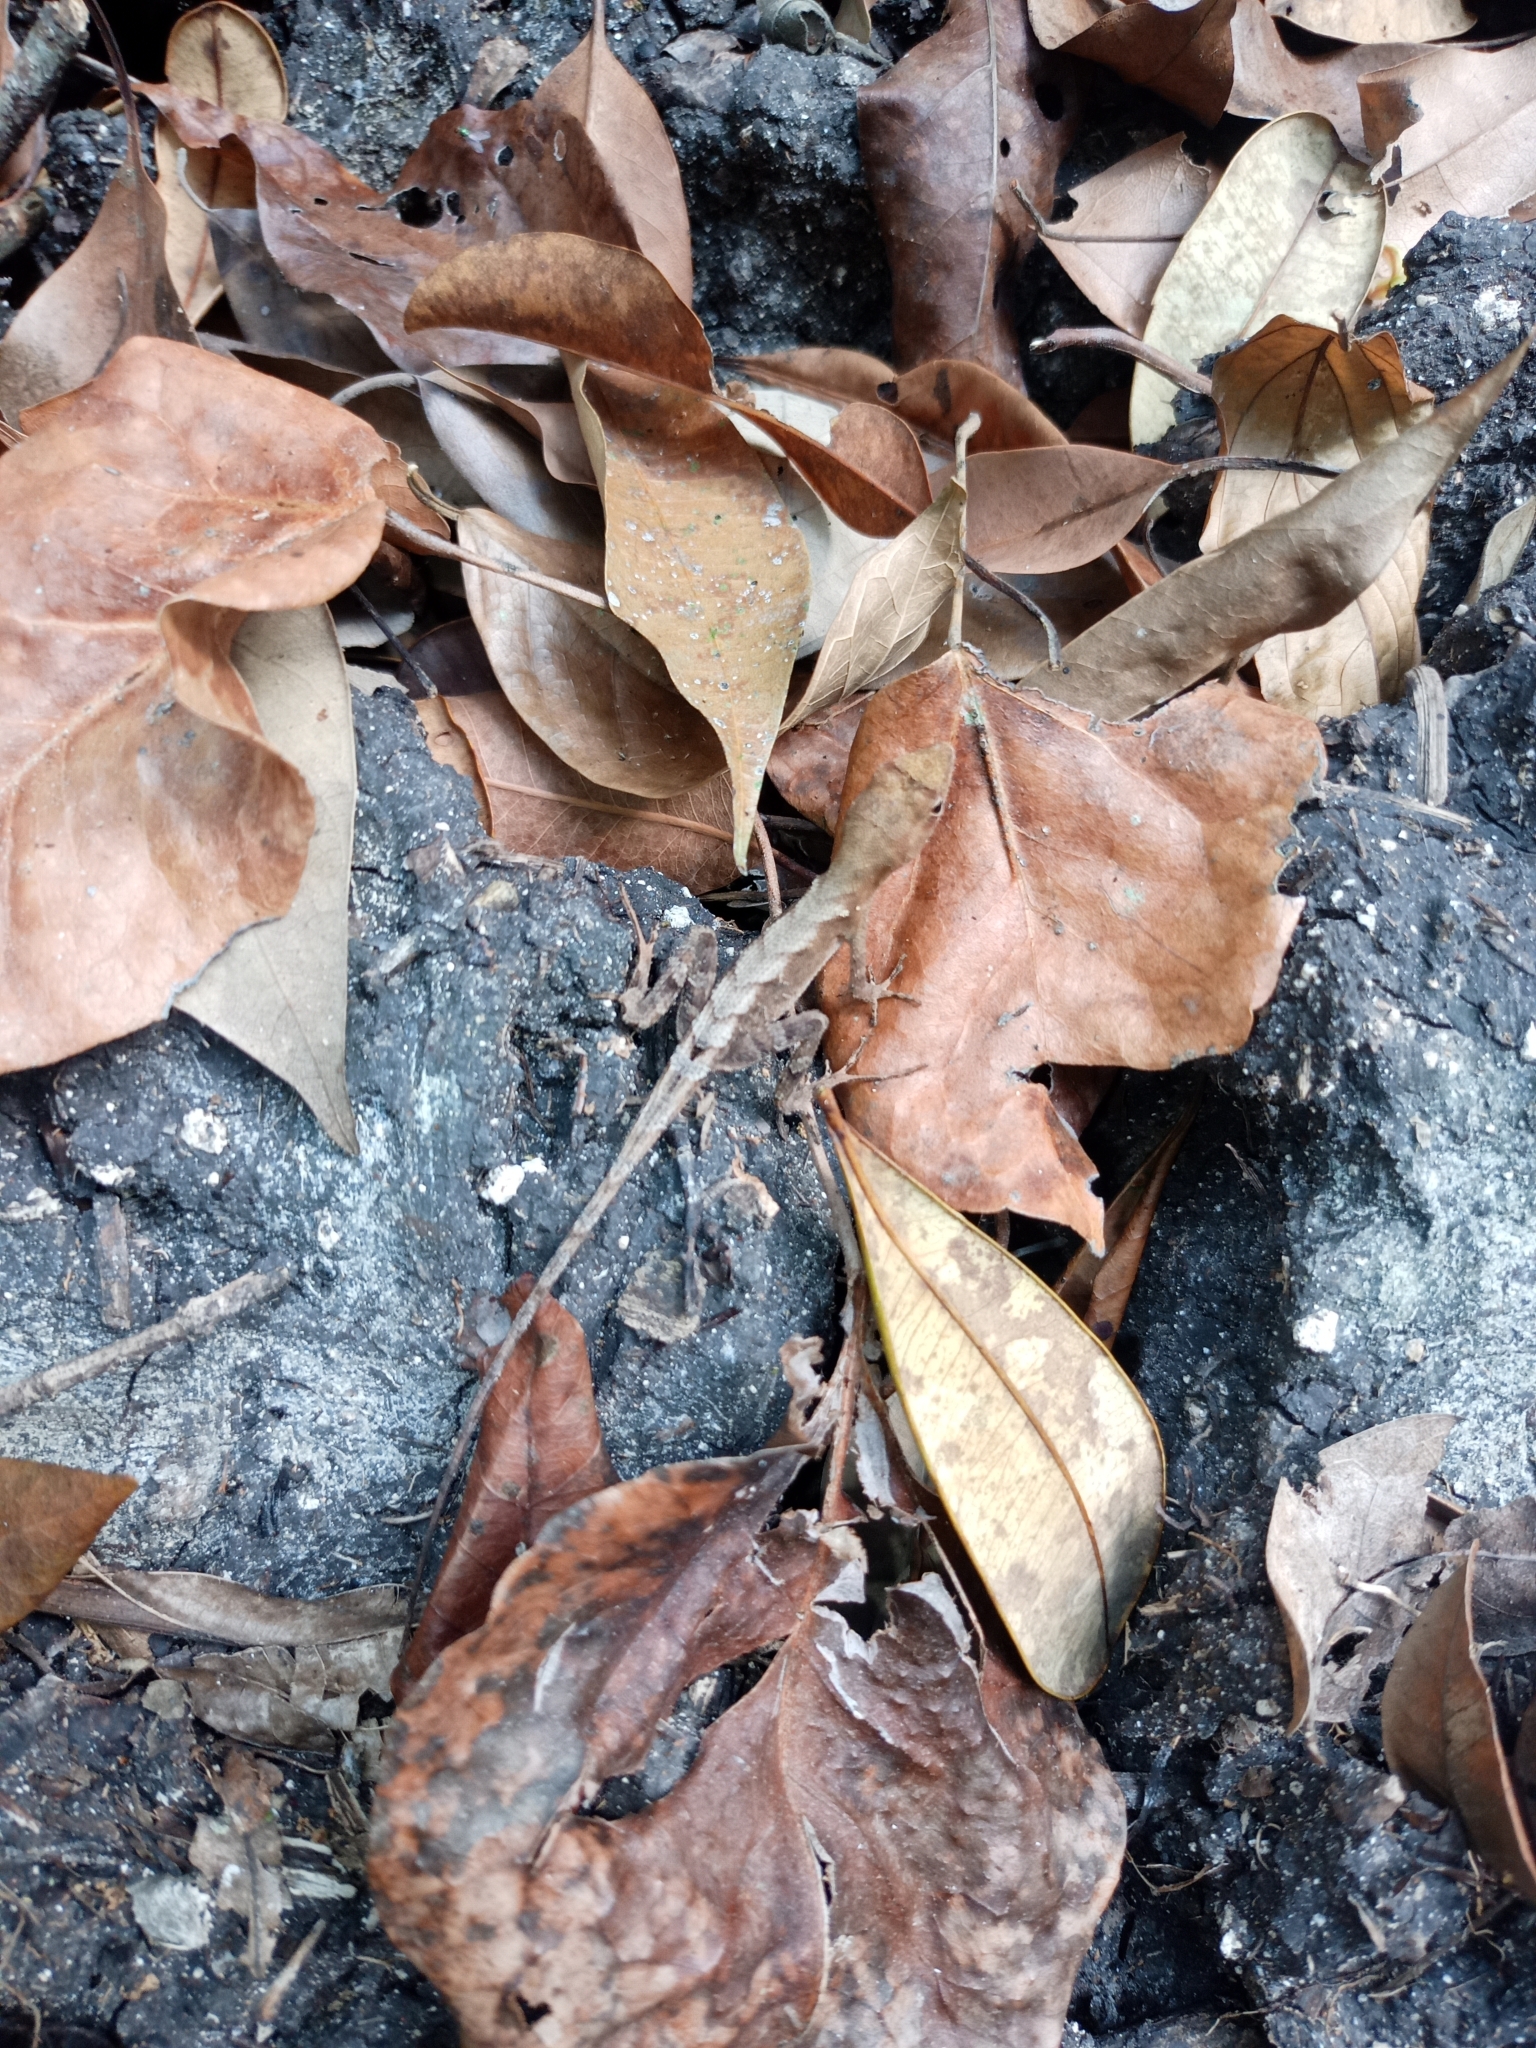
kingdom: Animalia
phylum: Chordata
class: Squamata
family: Dactyloidae
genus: Anolis
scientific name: Anolis tropidonotus
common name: Greater scaly anole
